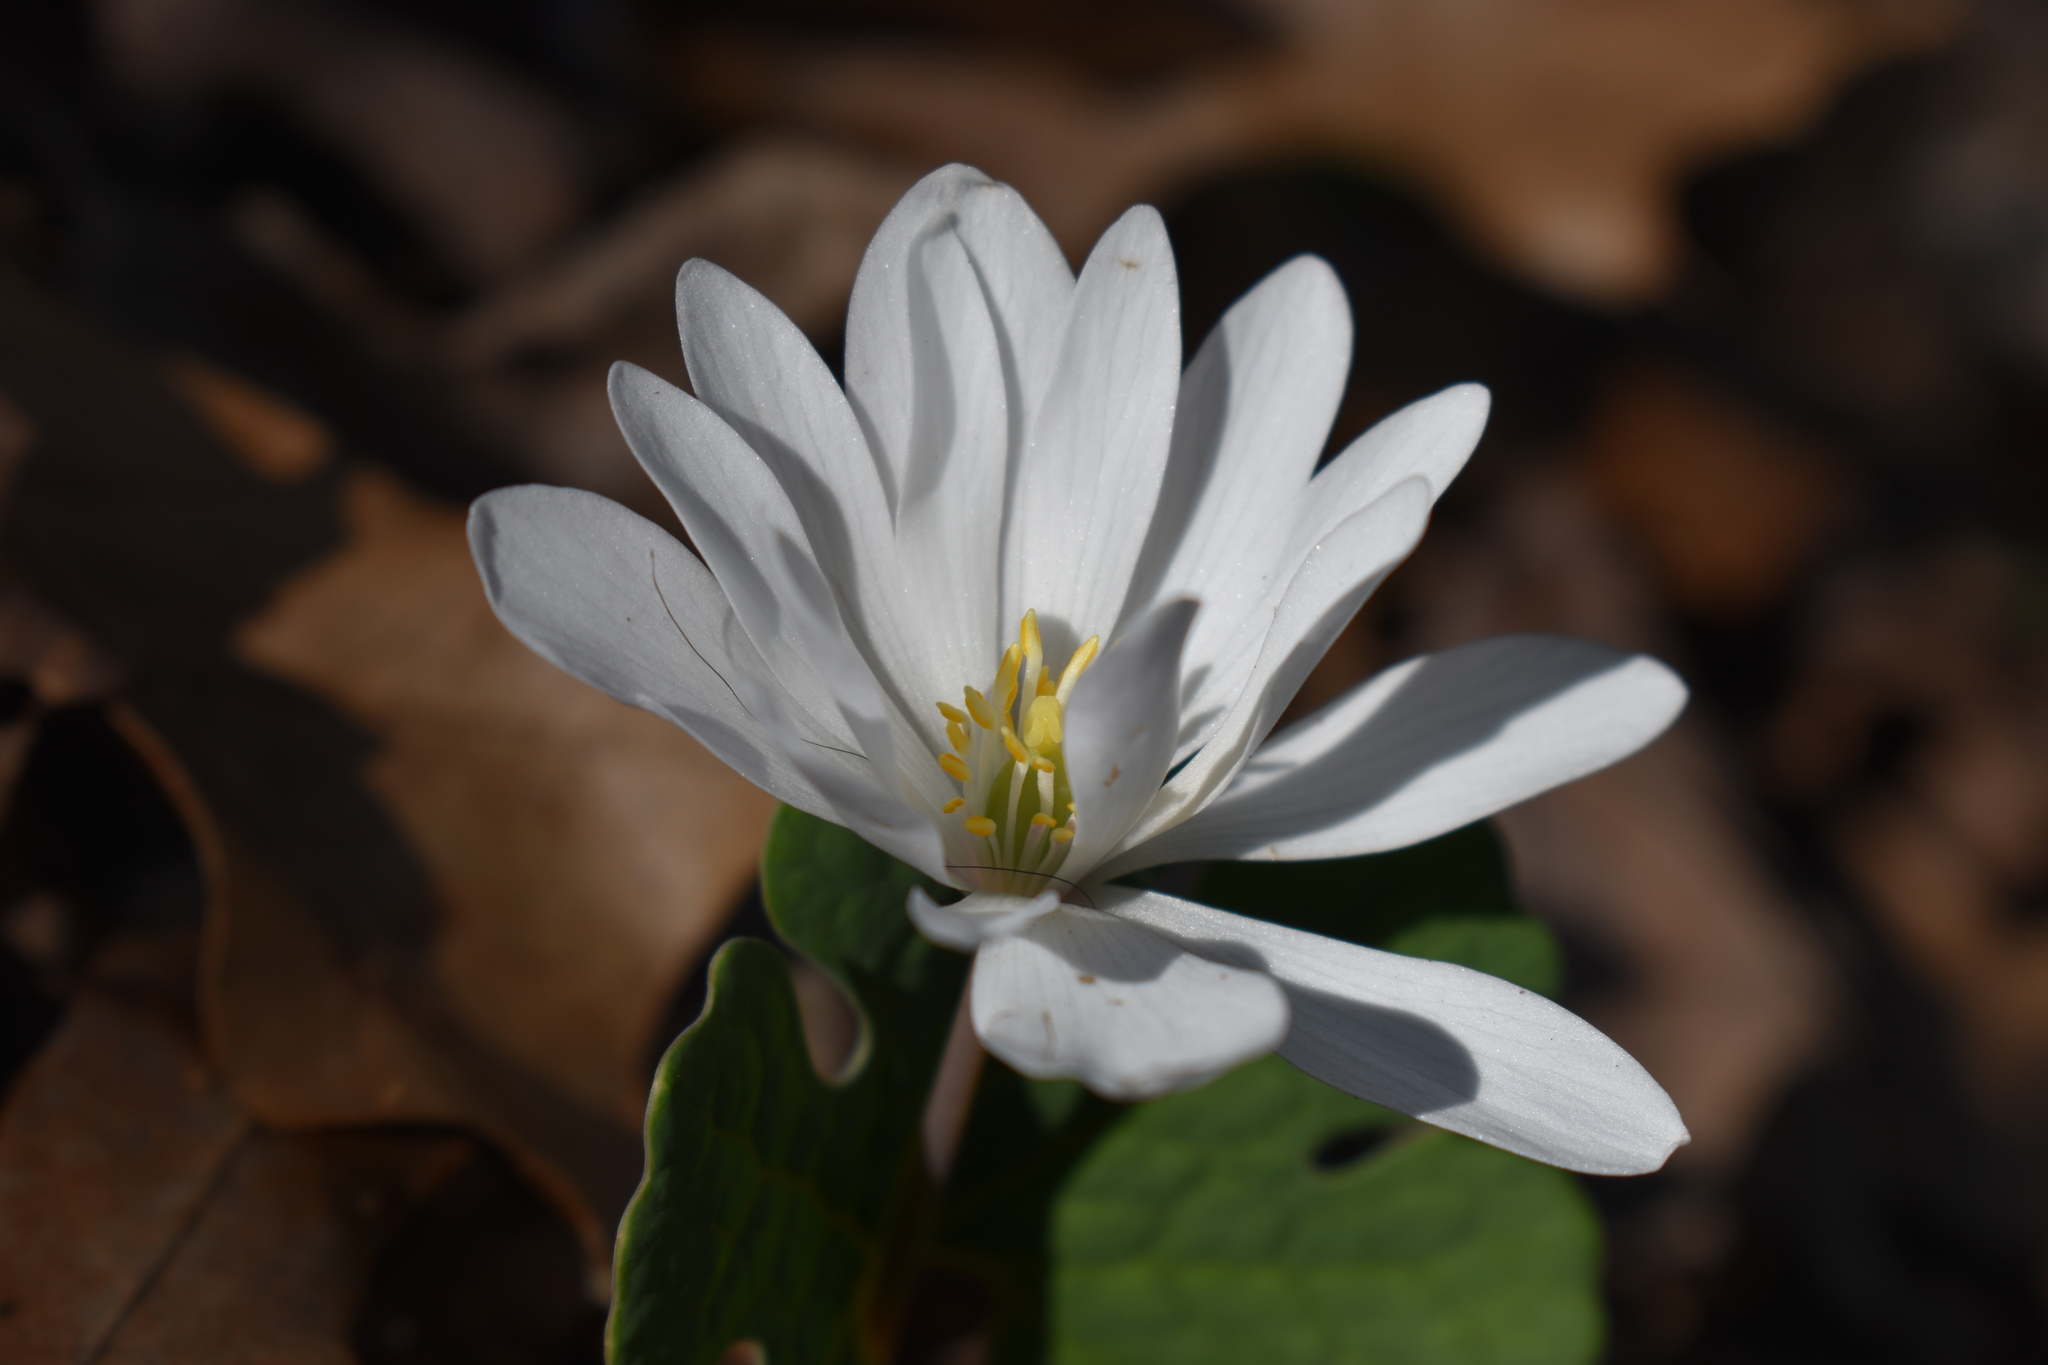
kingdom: Plantae
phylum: Tracheophyta
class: Magnoliopsida
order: Ranunculales
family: Papaveraceae
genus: Sanguinaria
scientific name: Sanguinaria canadensis
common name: Bloodroot
